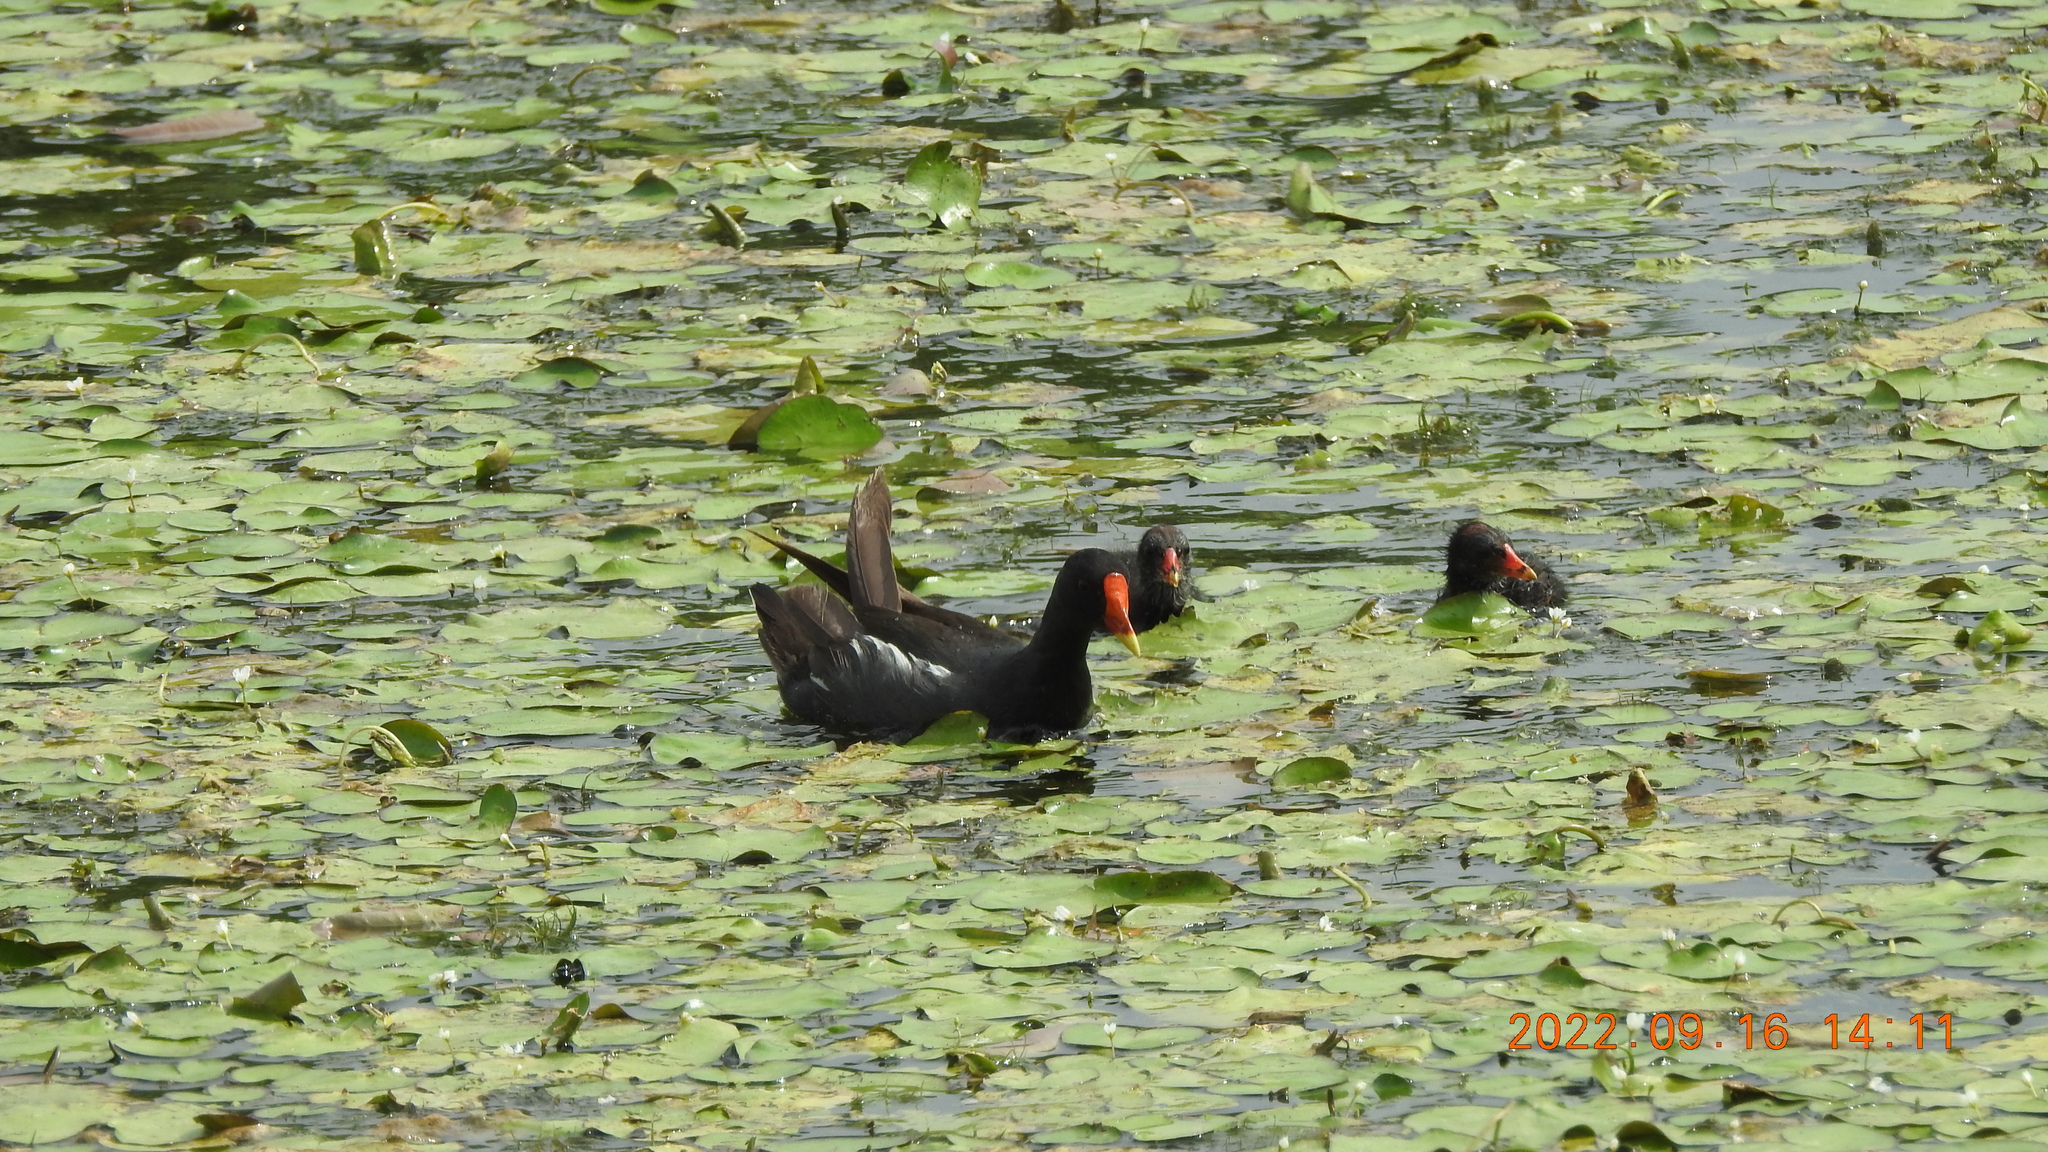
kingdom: Animalia
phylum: Chordata
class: Aves
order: Gruiformes
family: Rallidae
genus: Gallinula
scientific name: Gallinula chloropus
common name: Common moorhen
